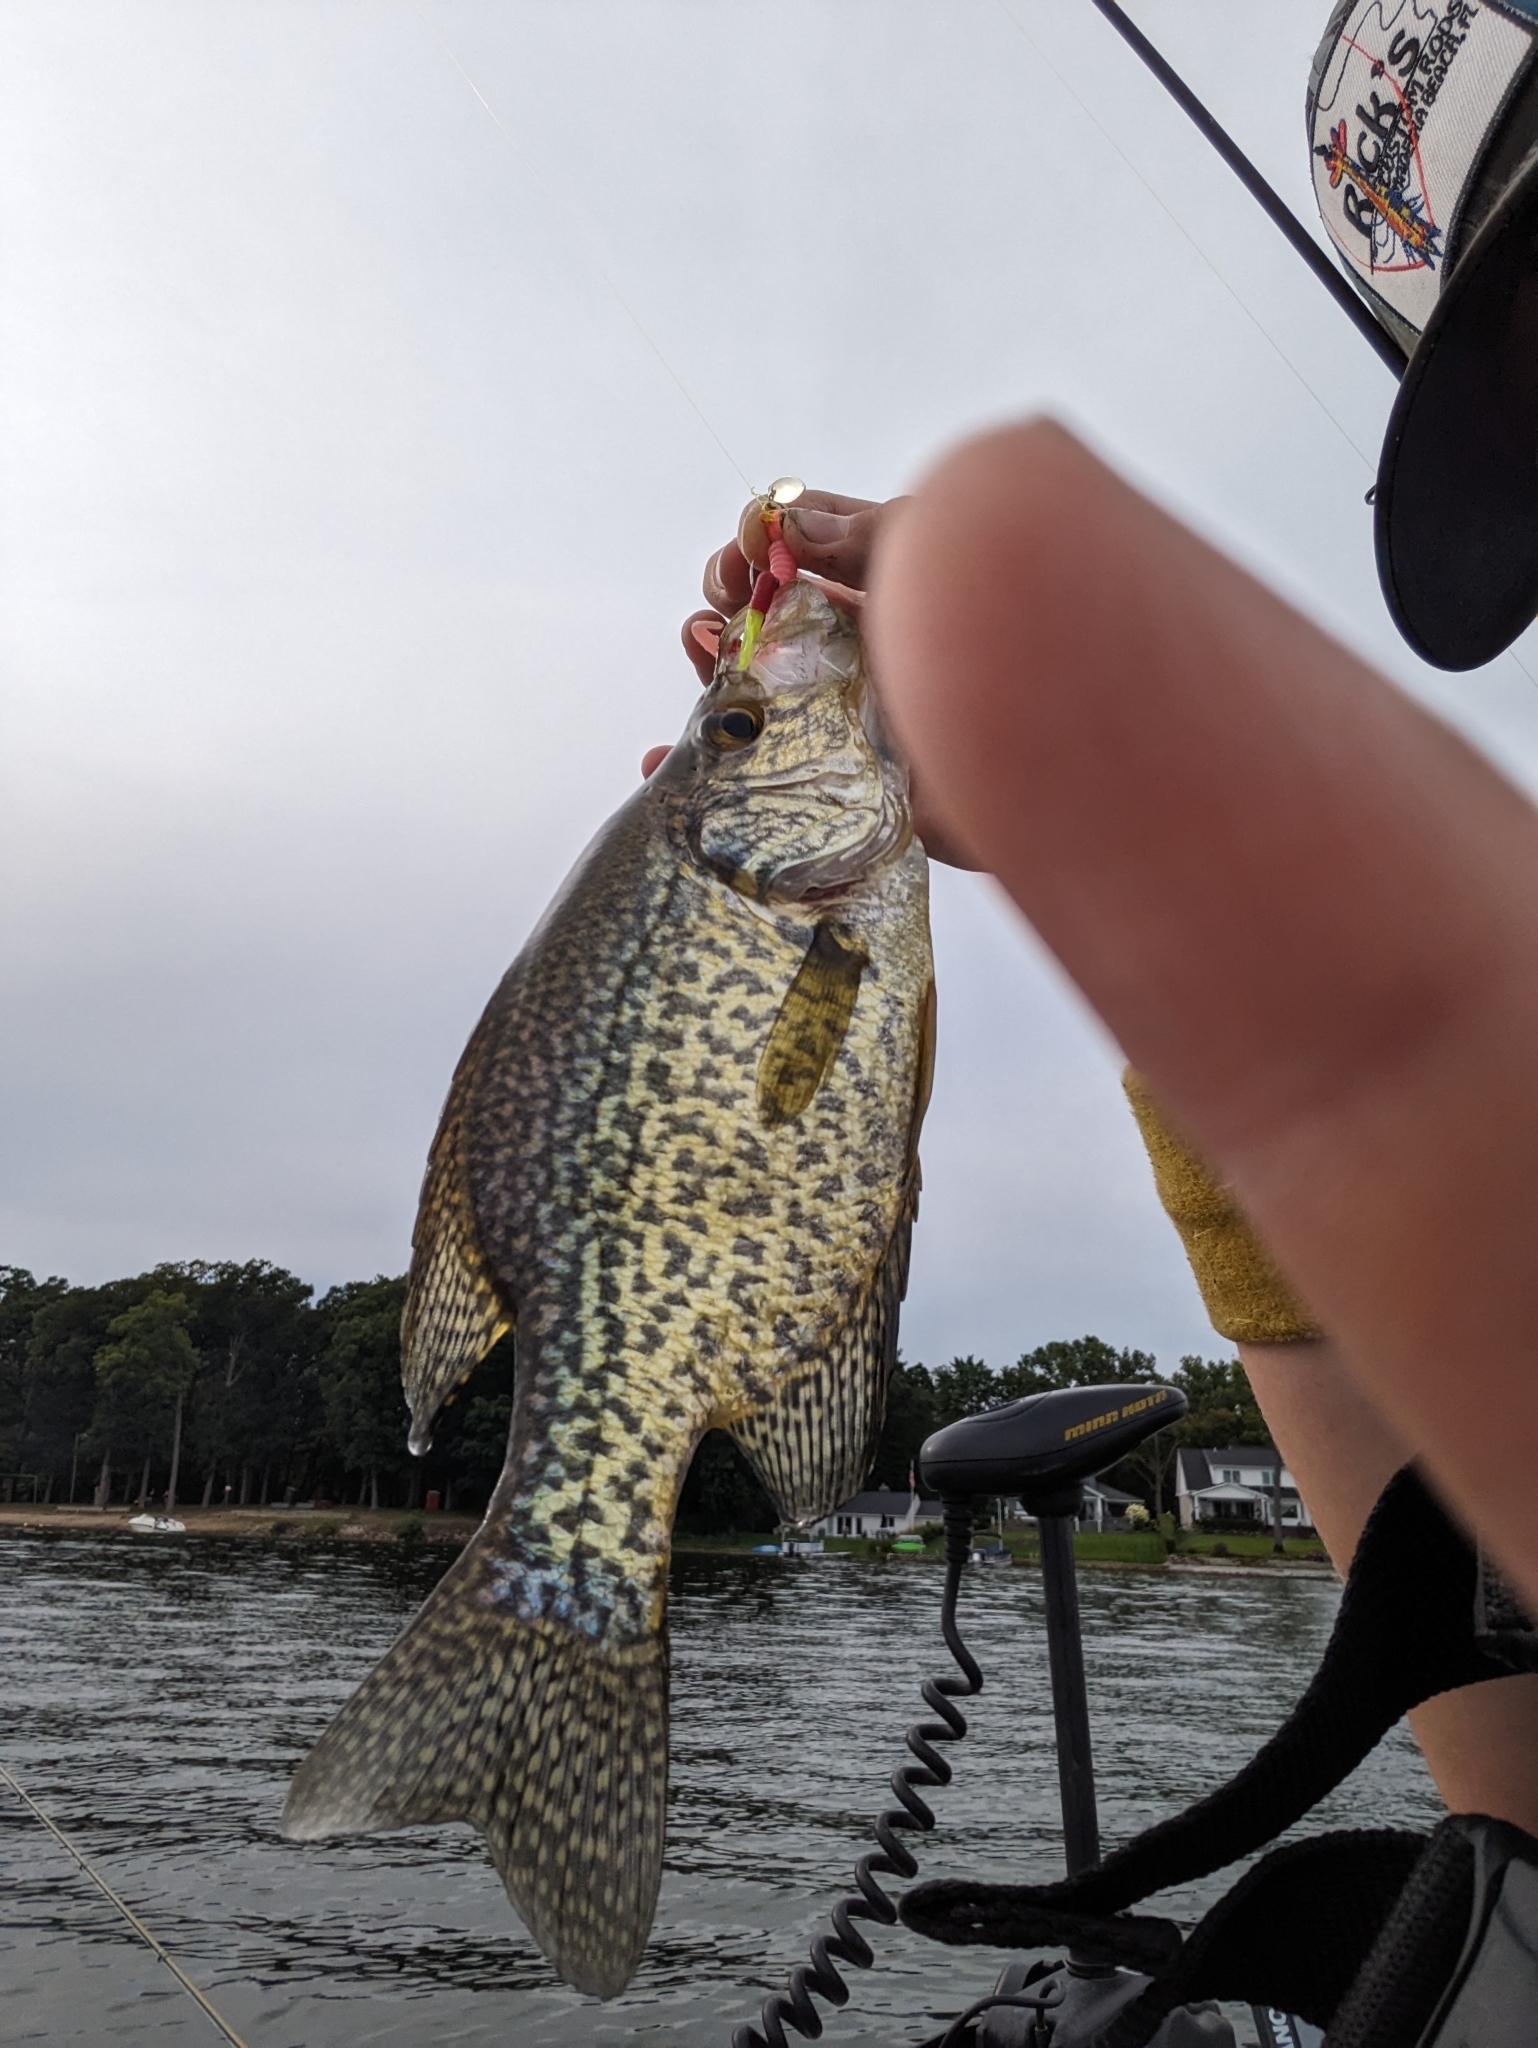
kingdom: Animalia
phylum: Chordata
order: Perciformes
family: Centrarchidae
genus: Pomoxis
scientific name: Pomoxis nigromaculatus
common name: Black crappie
